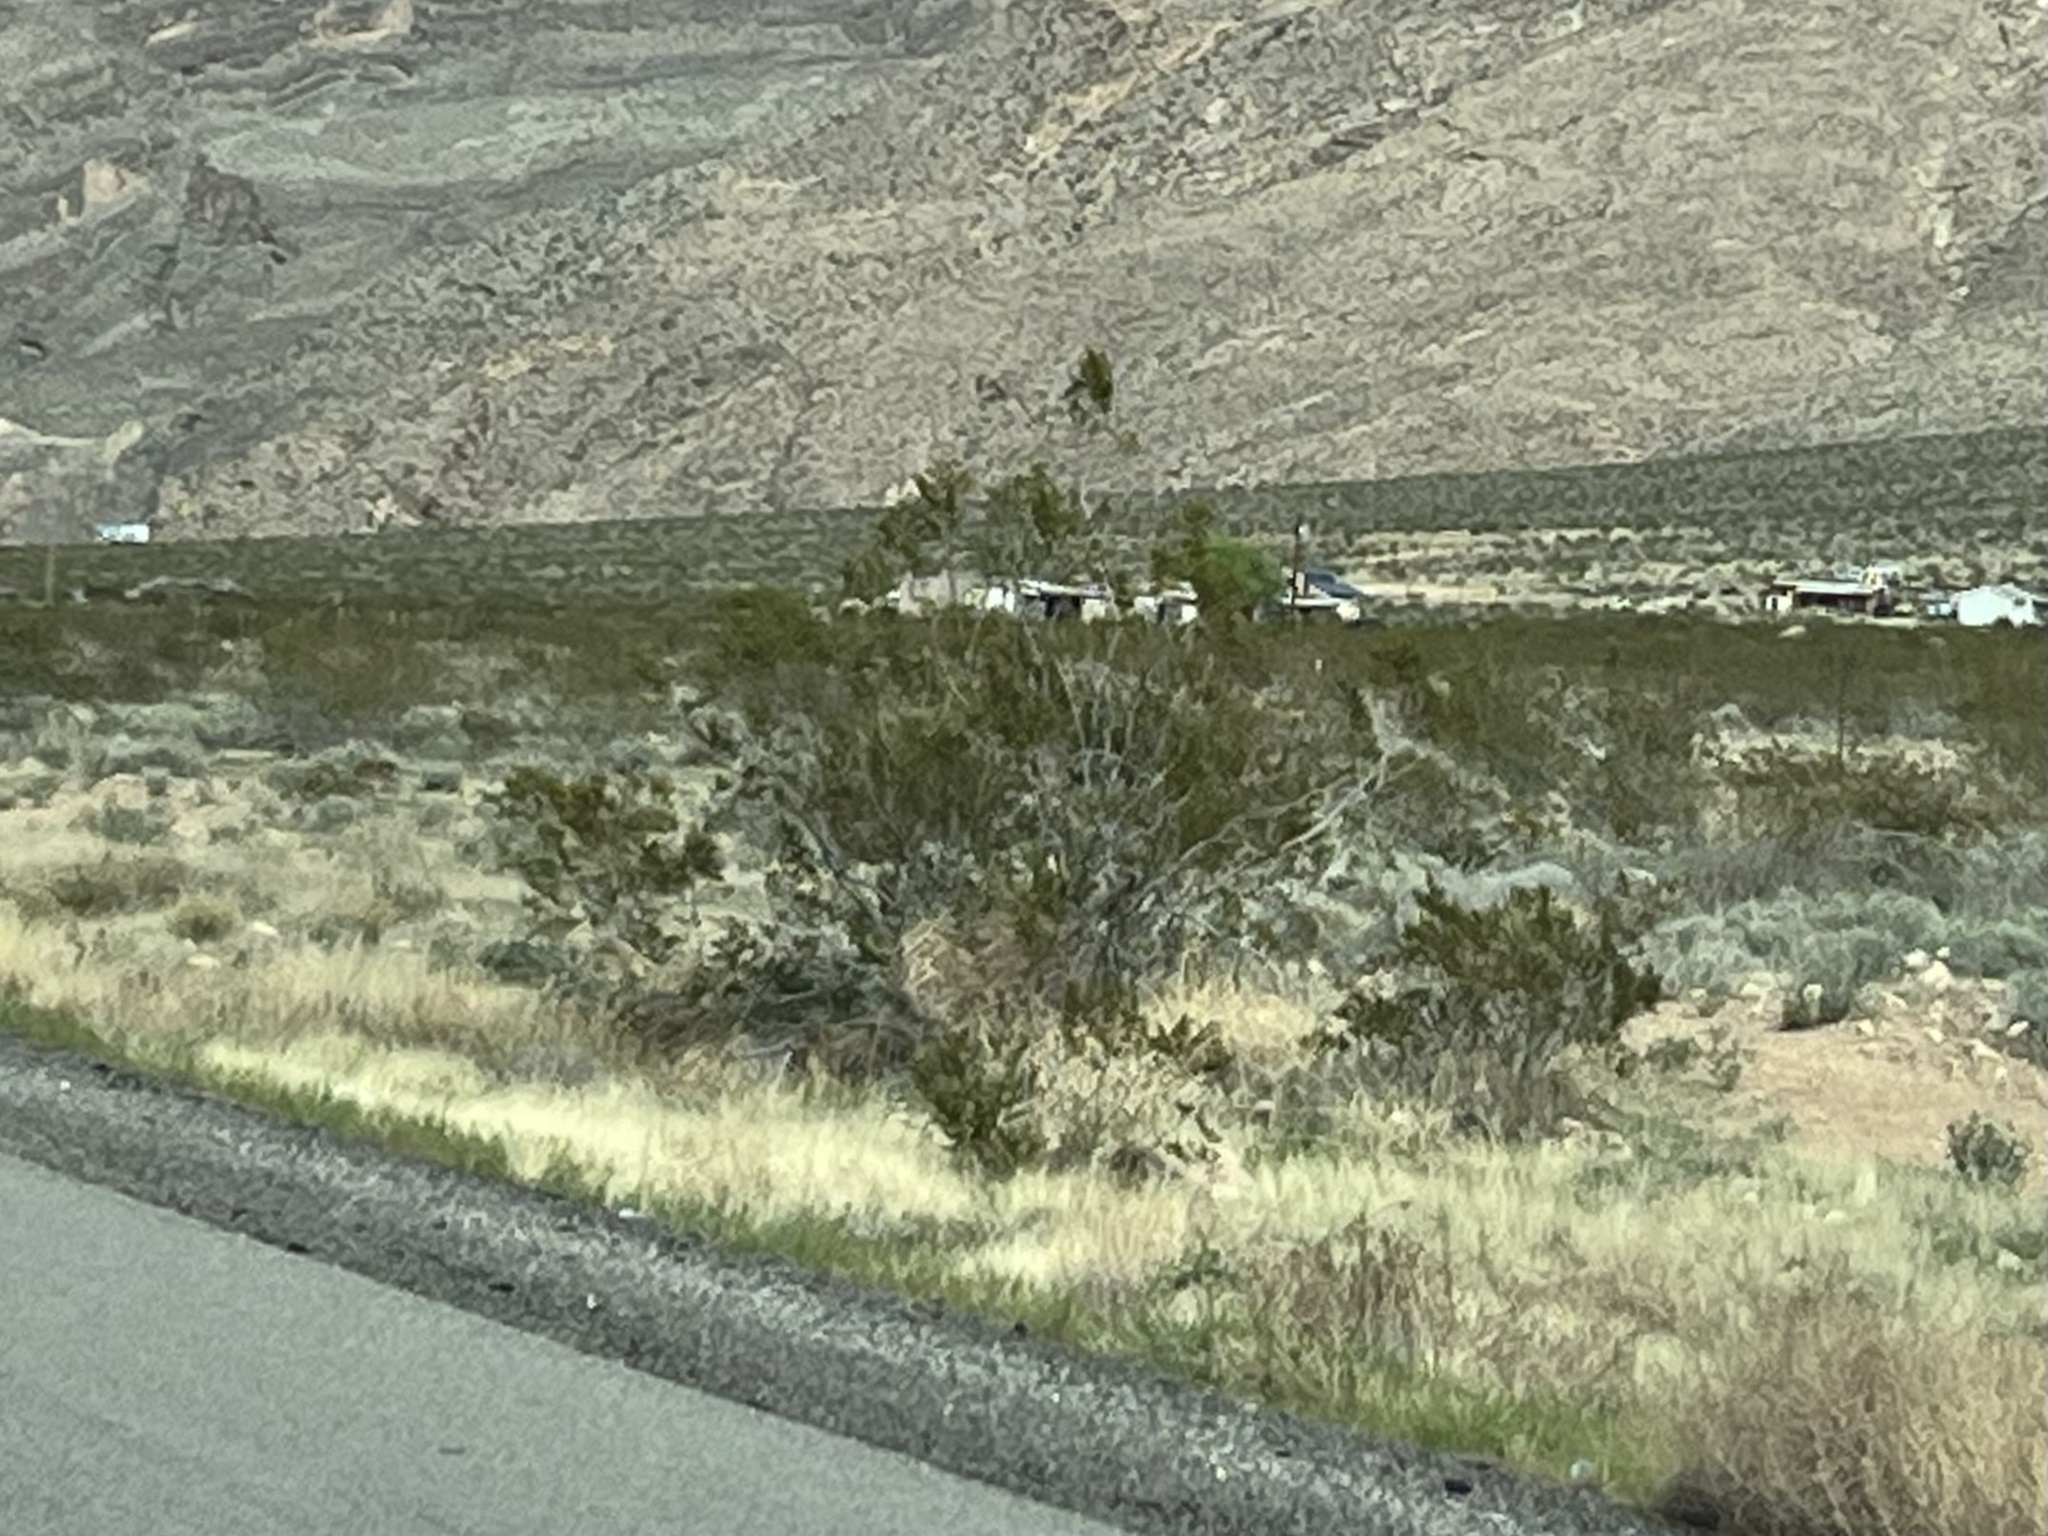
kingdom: Plantae
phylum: Tracheophyta
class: Magnoliopsida
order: Zygophyllales
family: Zygophyllaceae
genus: Larrea
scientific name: Larrea tridentata
